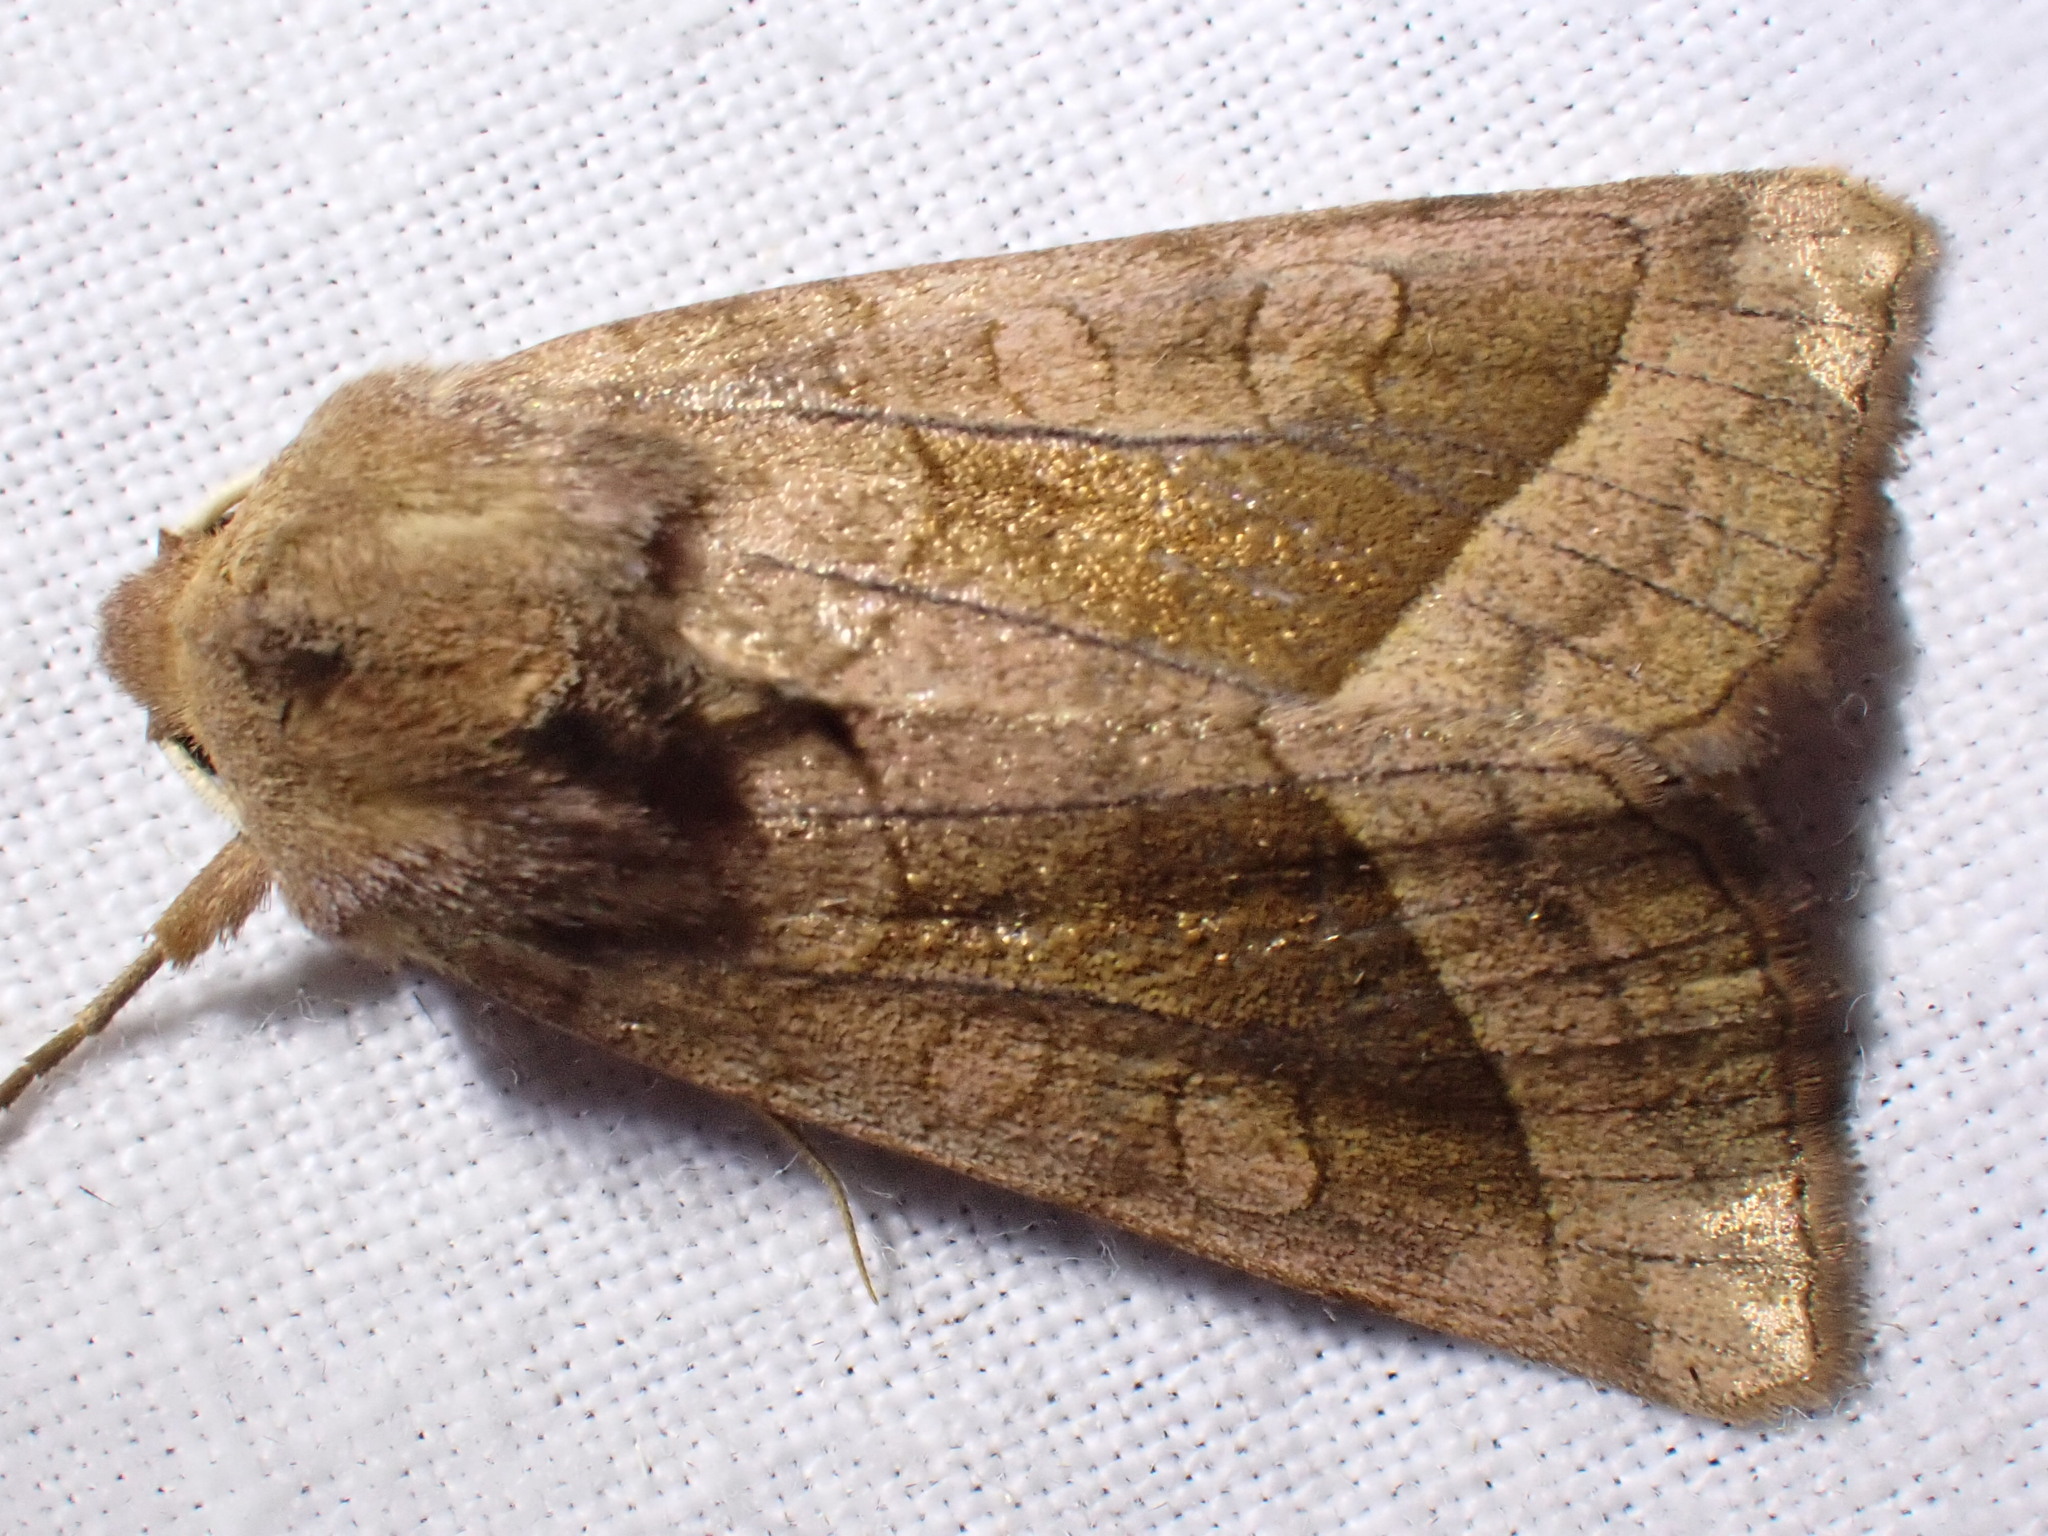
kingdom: Animalia
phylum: Arthropoda
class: Insecta
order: Lepidoptera
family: Noctuidae
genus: Hydraecia
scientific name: Hydraecia micacea
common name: Rosy rustic
